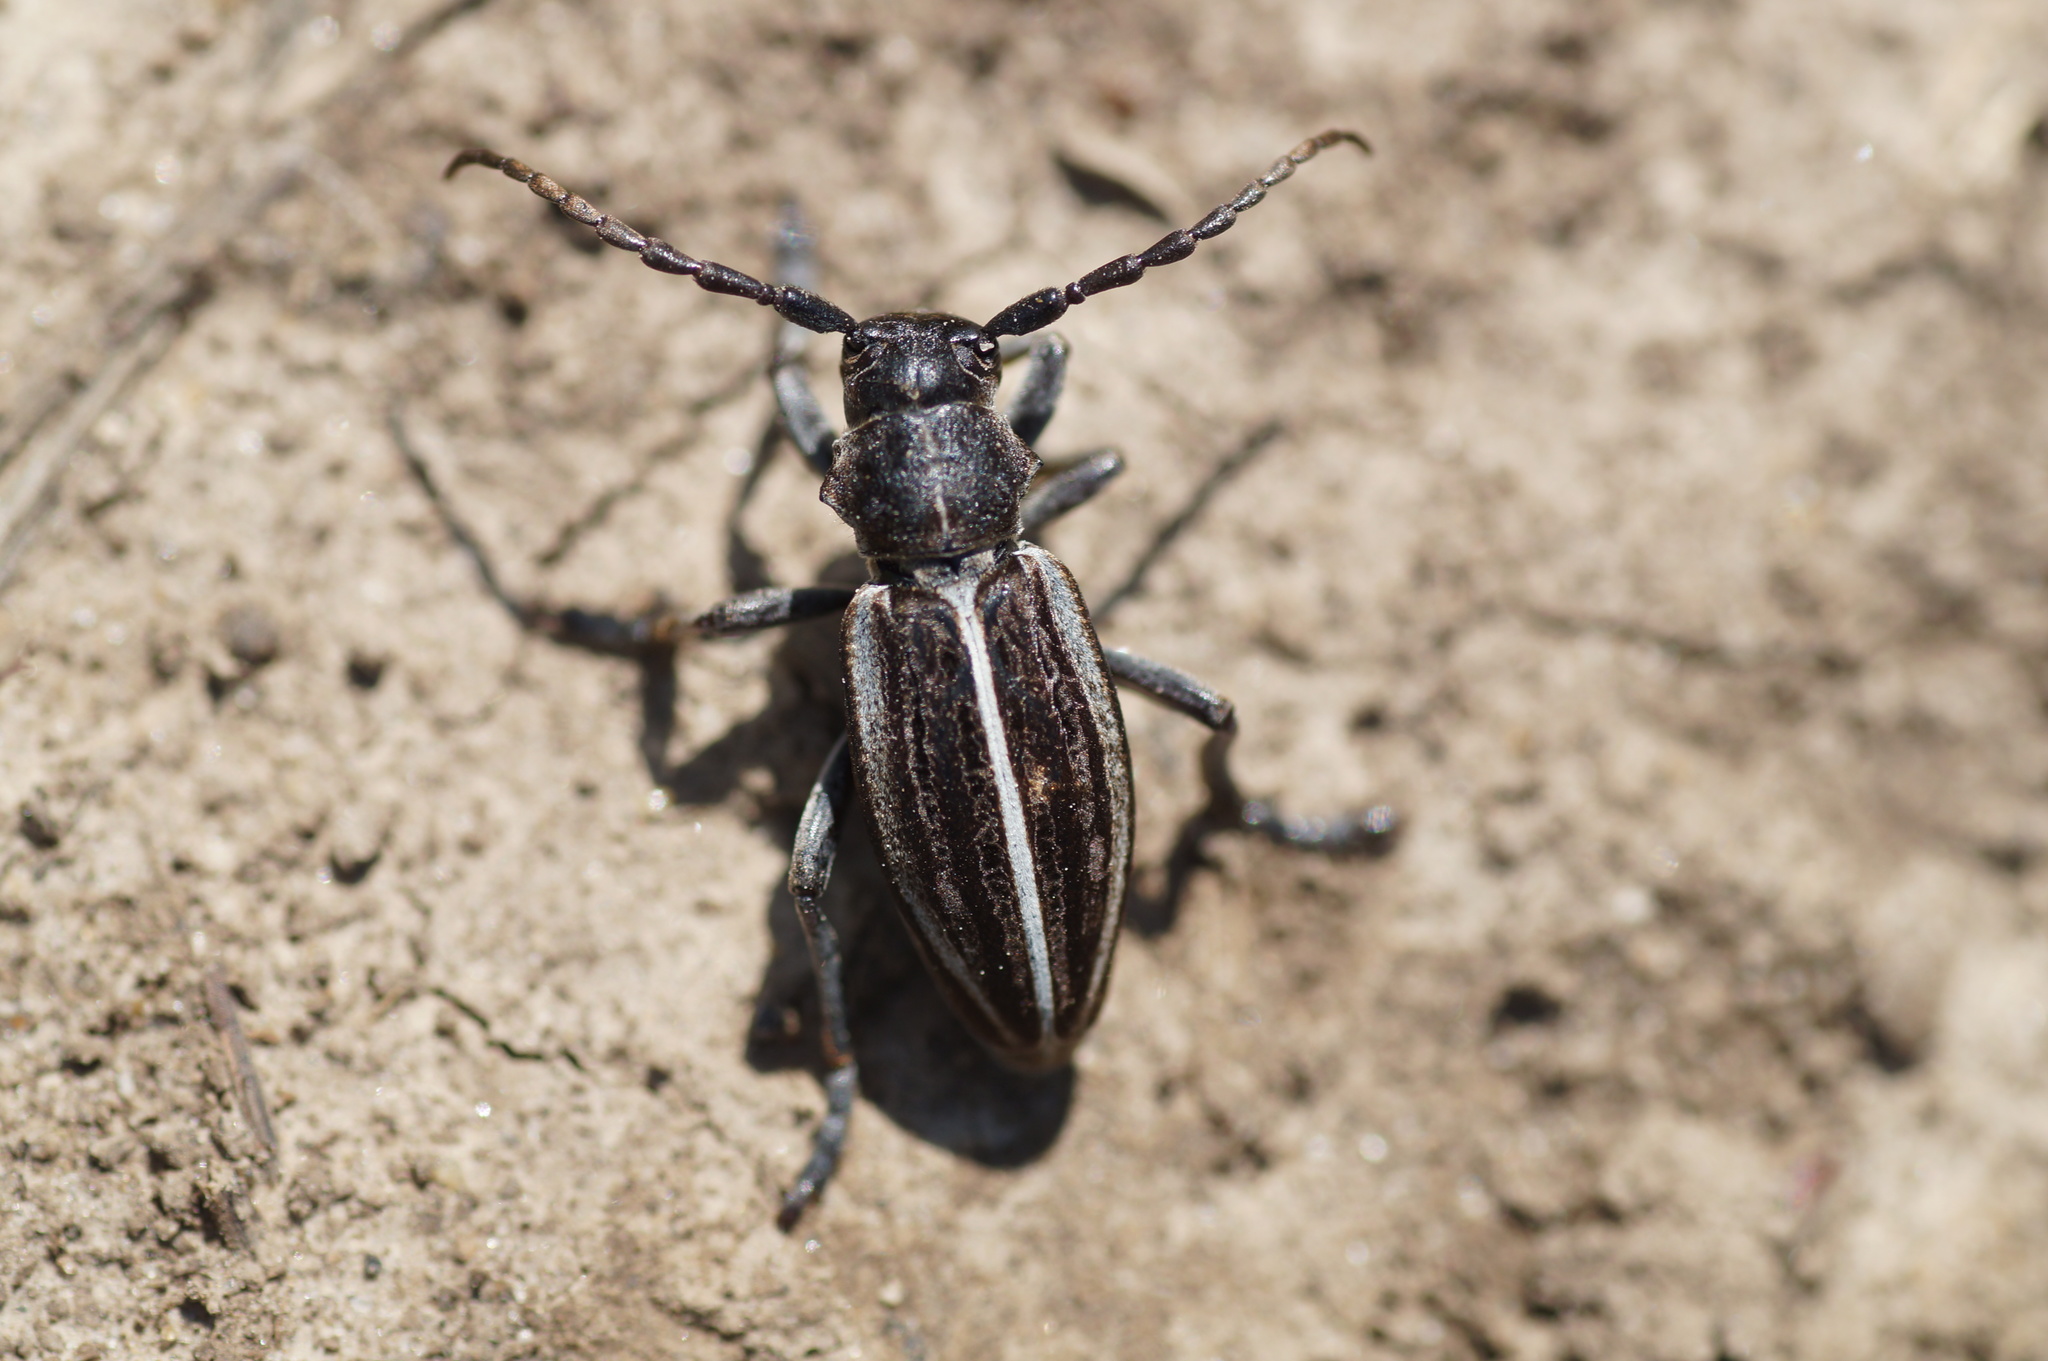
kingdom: Animalia
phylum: Arthropoda
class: Insecta
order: Coleoptera
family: Cerambycidae
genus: Dorcadion
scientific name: Dorcadion holosericeum
